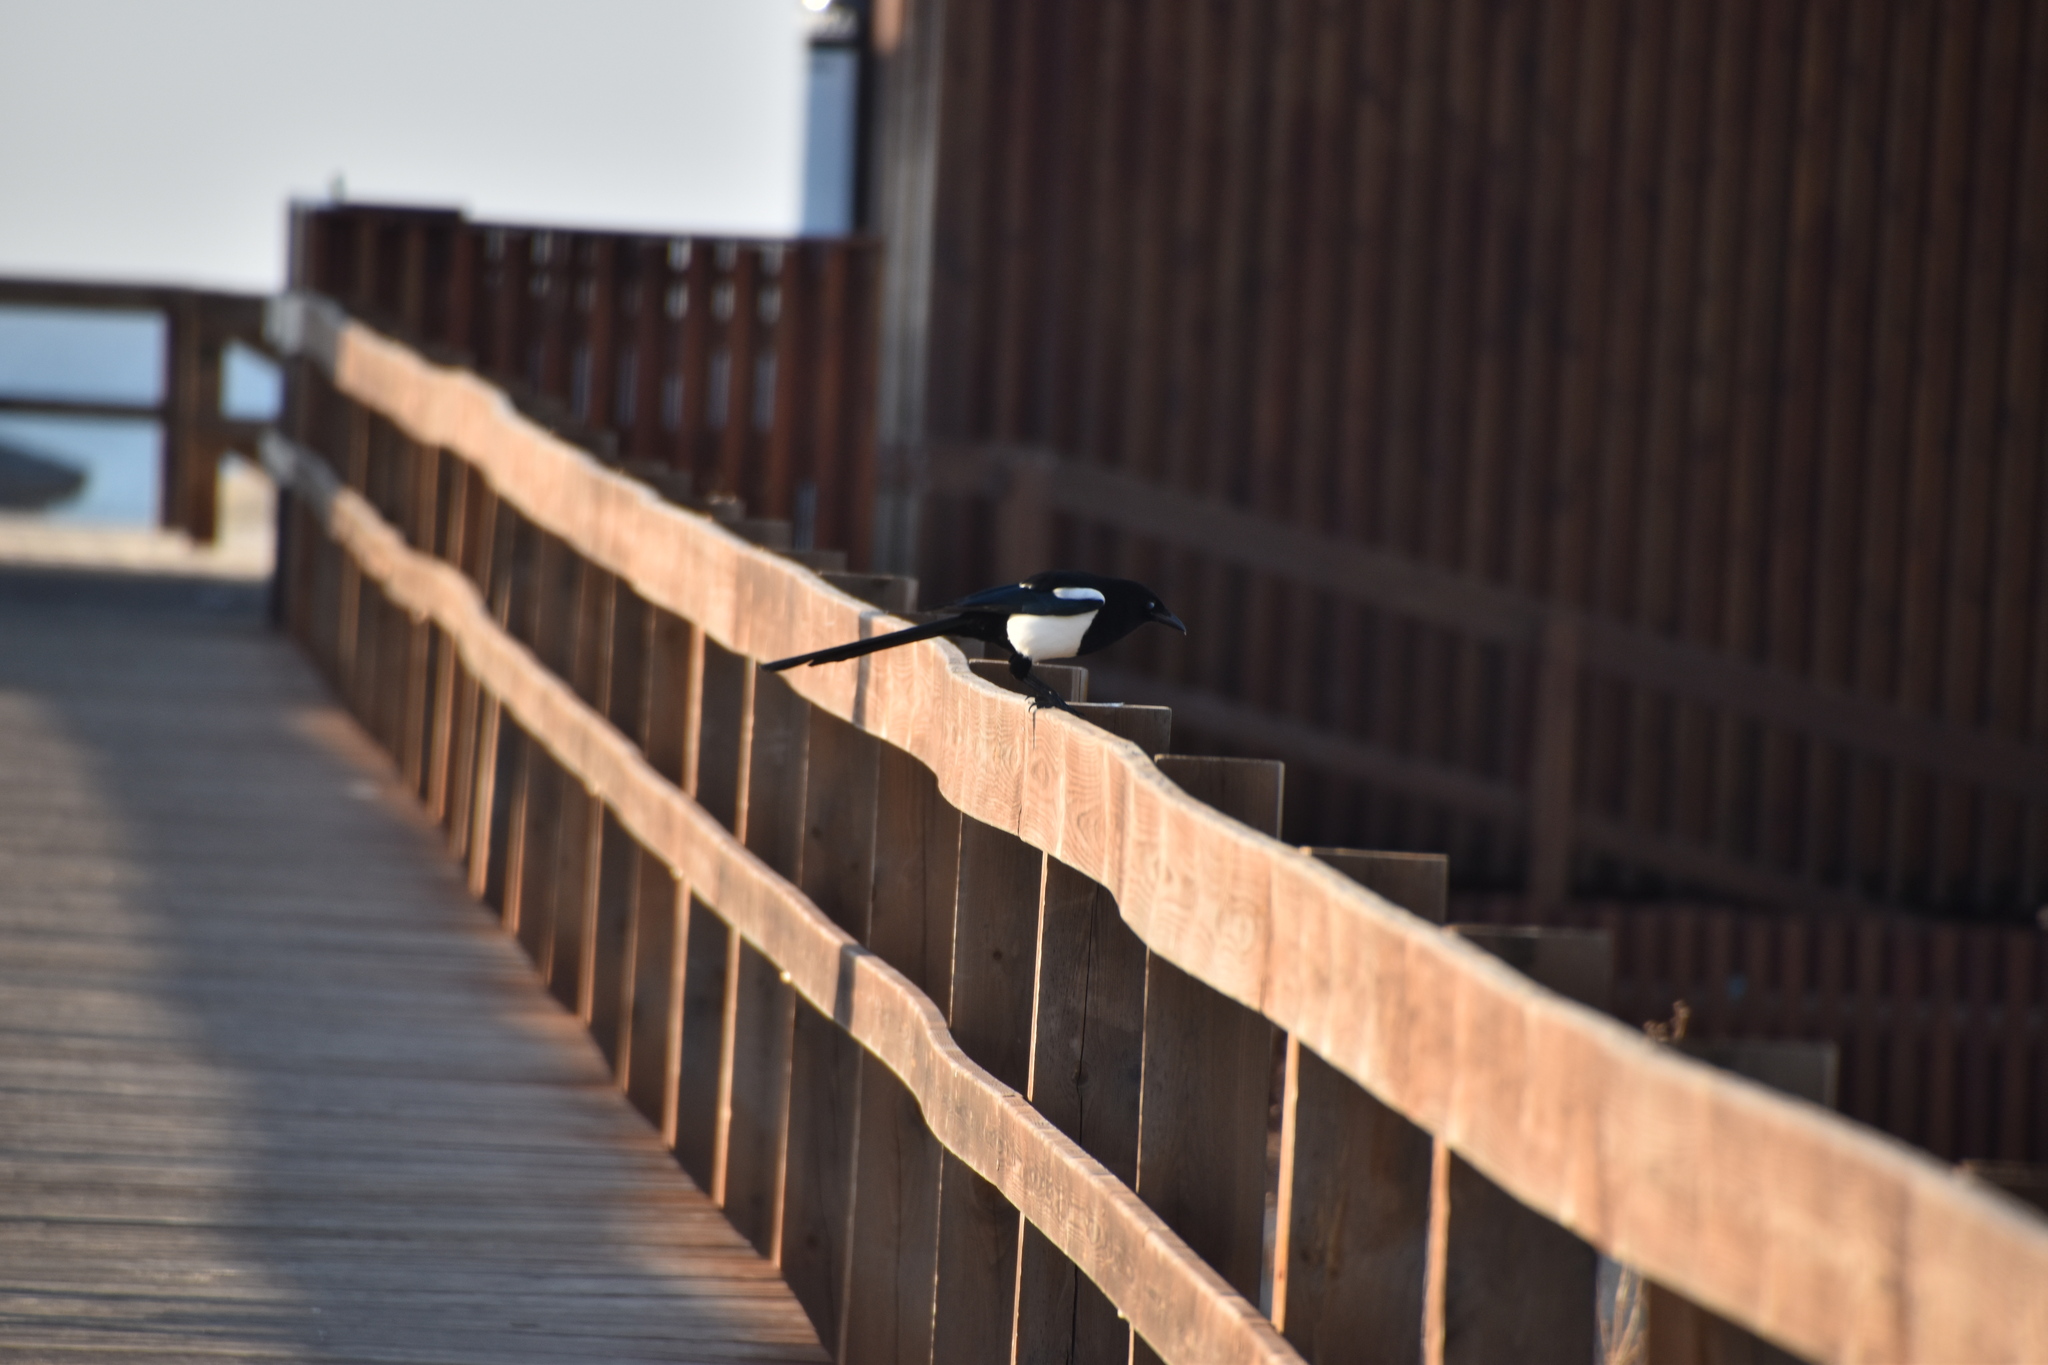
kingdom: Animalia
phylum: Chordata
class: Aves
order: Passeriformes
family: Corvidae
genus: Pica
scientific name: Pica pica
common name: Eurasian magpie
